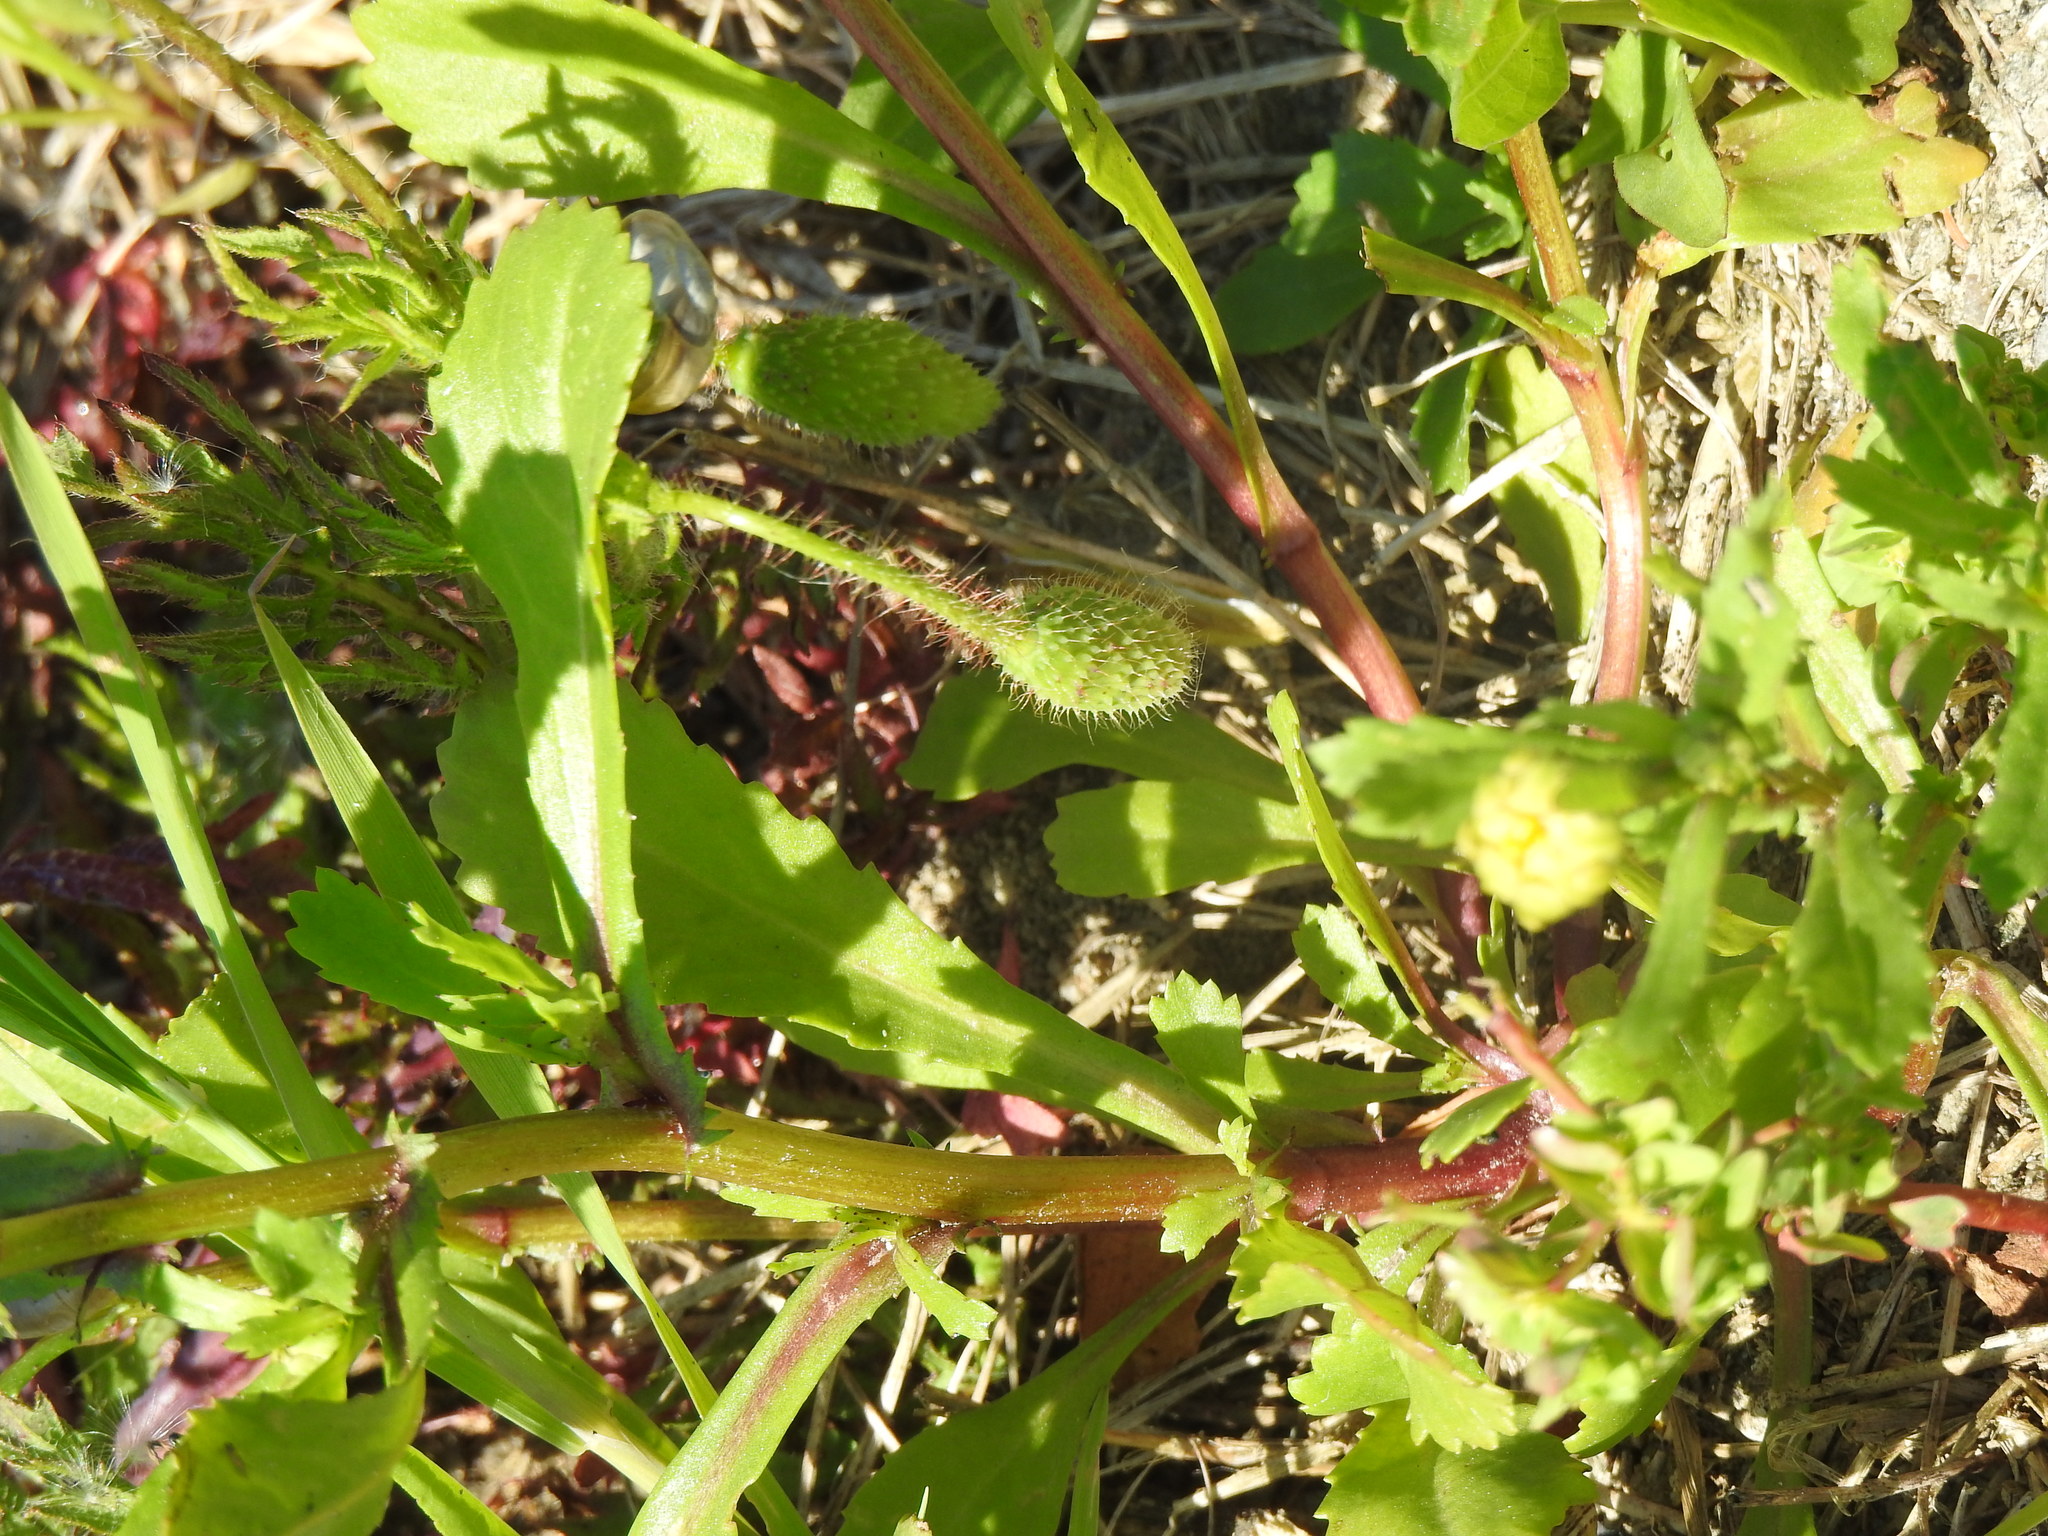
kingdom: Plantae
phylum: Tracheophyta
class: Magnoliopsida
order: Ranunculales
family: Papaveraceae
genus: Papaver
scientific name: Papaver rhoeas
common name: Corn poppy
